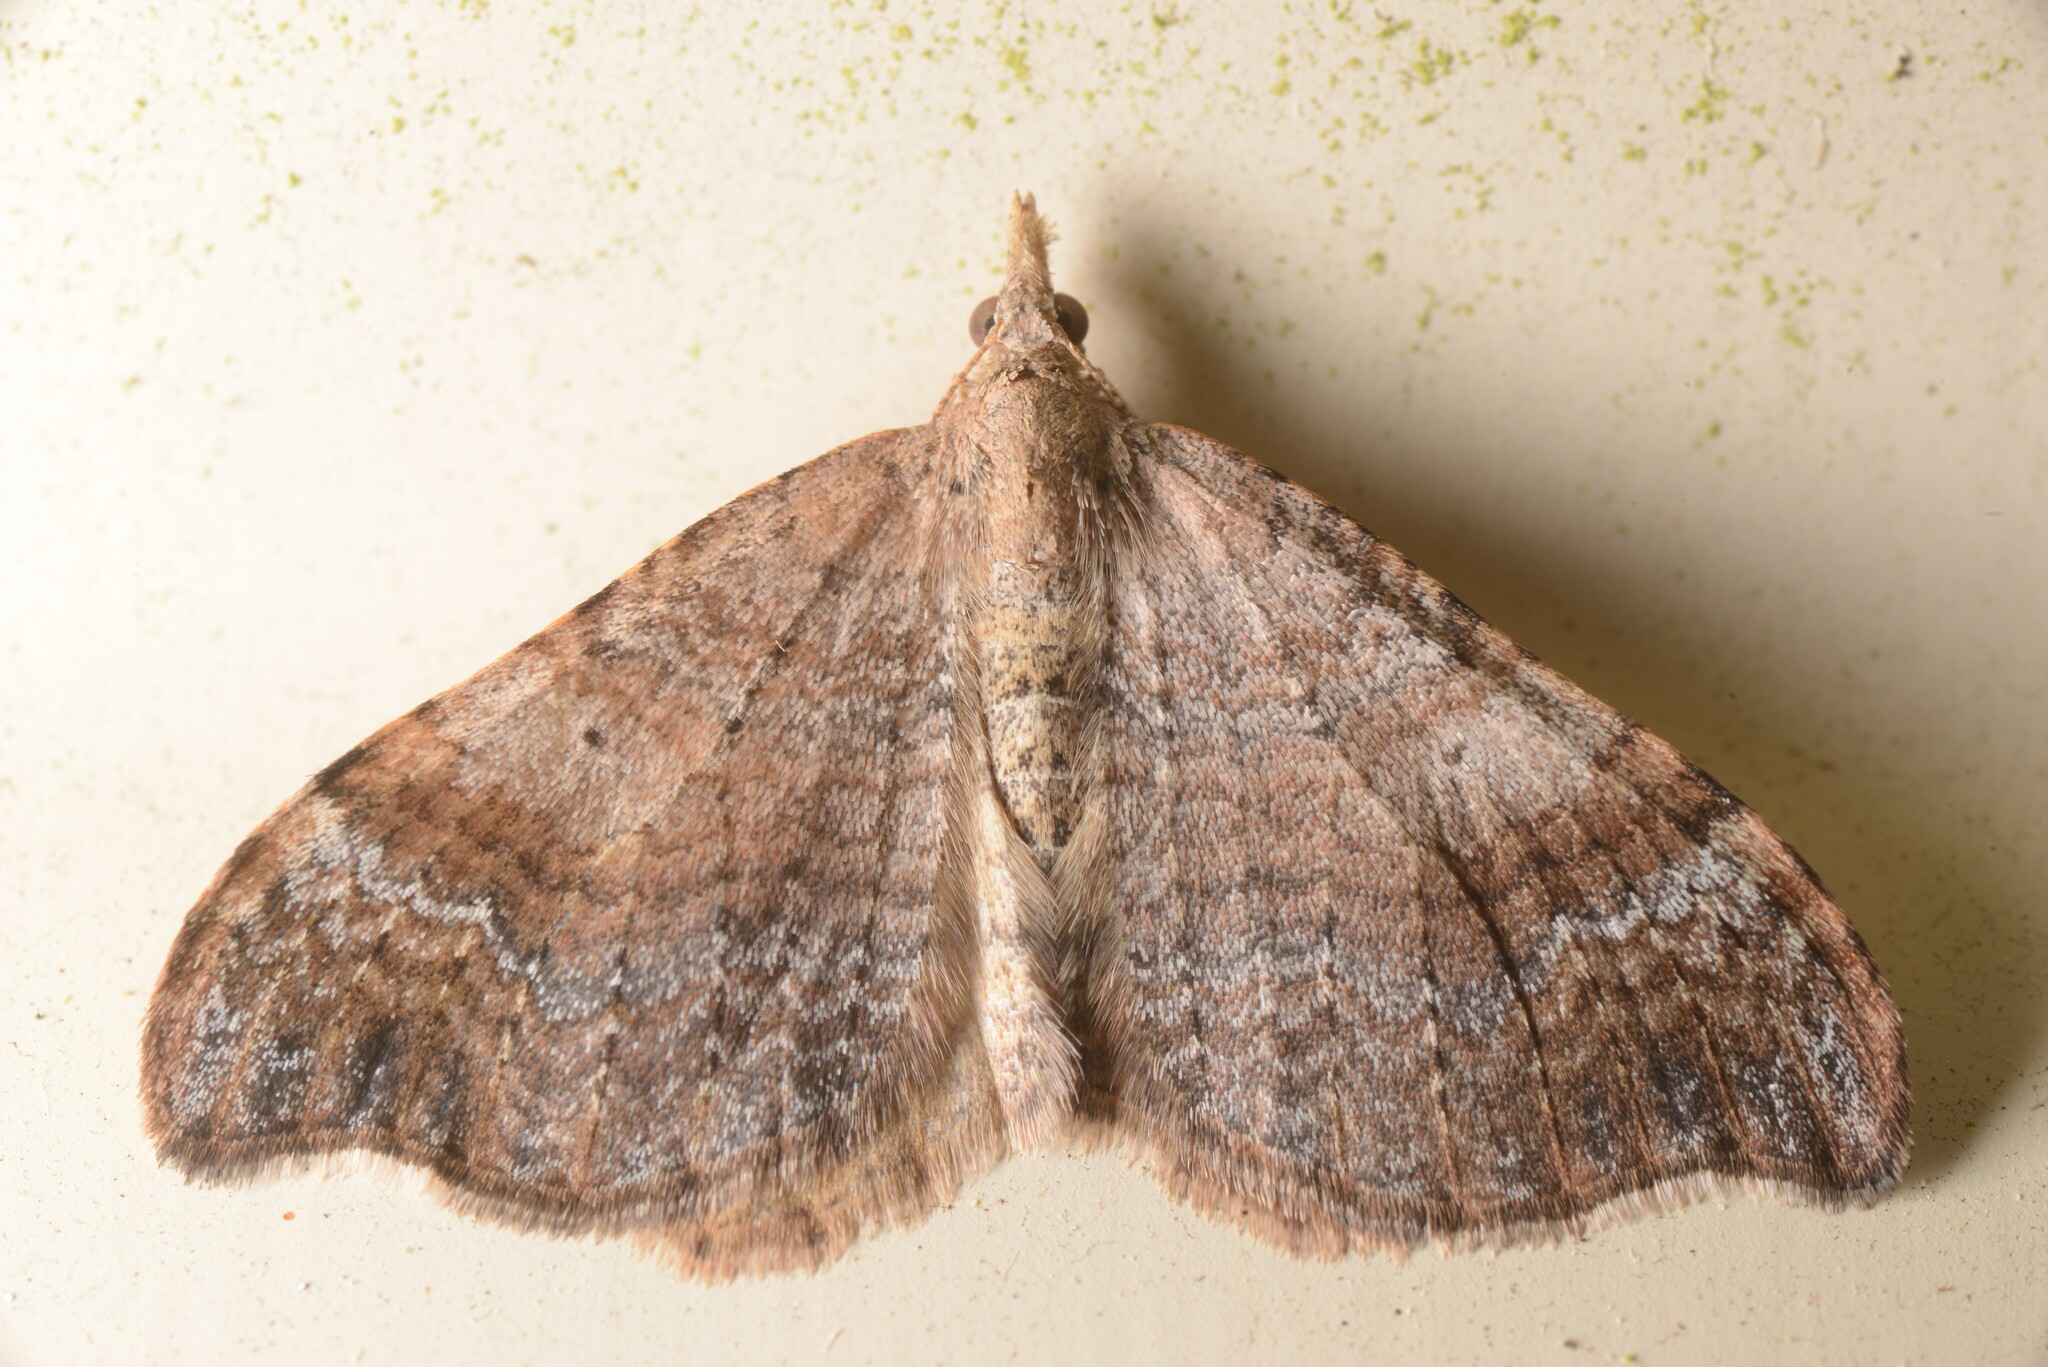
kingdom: Animalia
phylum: Arthropoda
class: Insecta
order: Lepidoptera
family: Geometridae
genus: Homodotis
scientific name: Homodotis megaspilata
